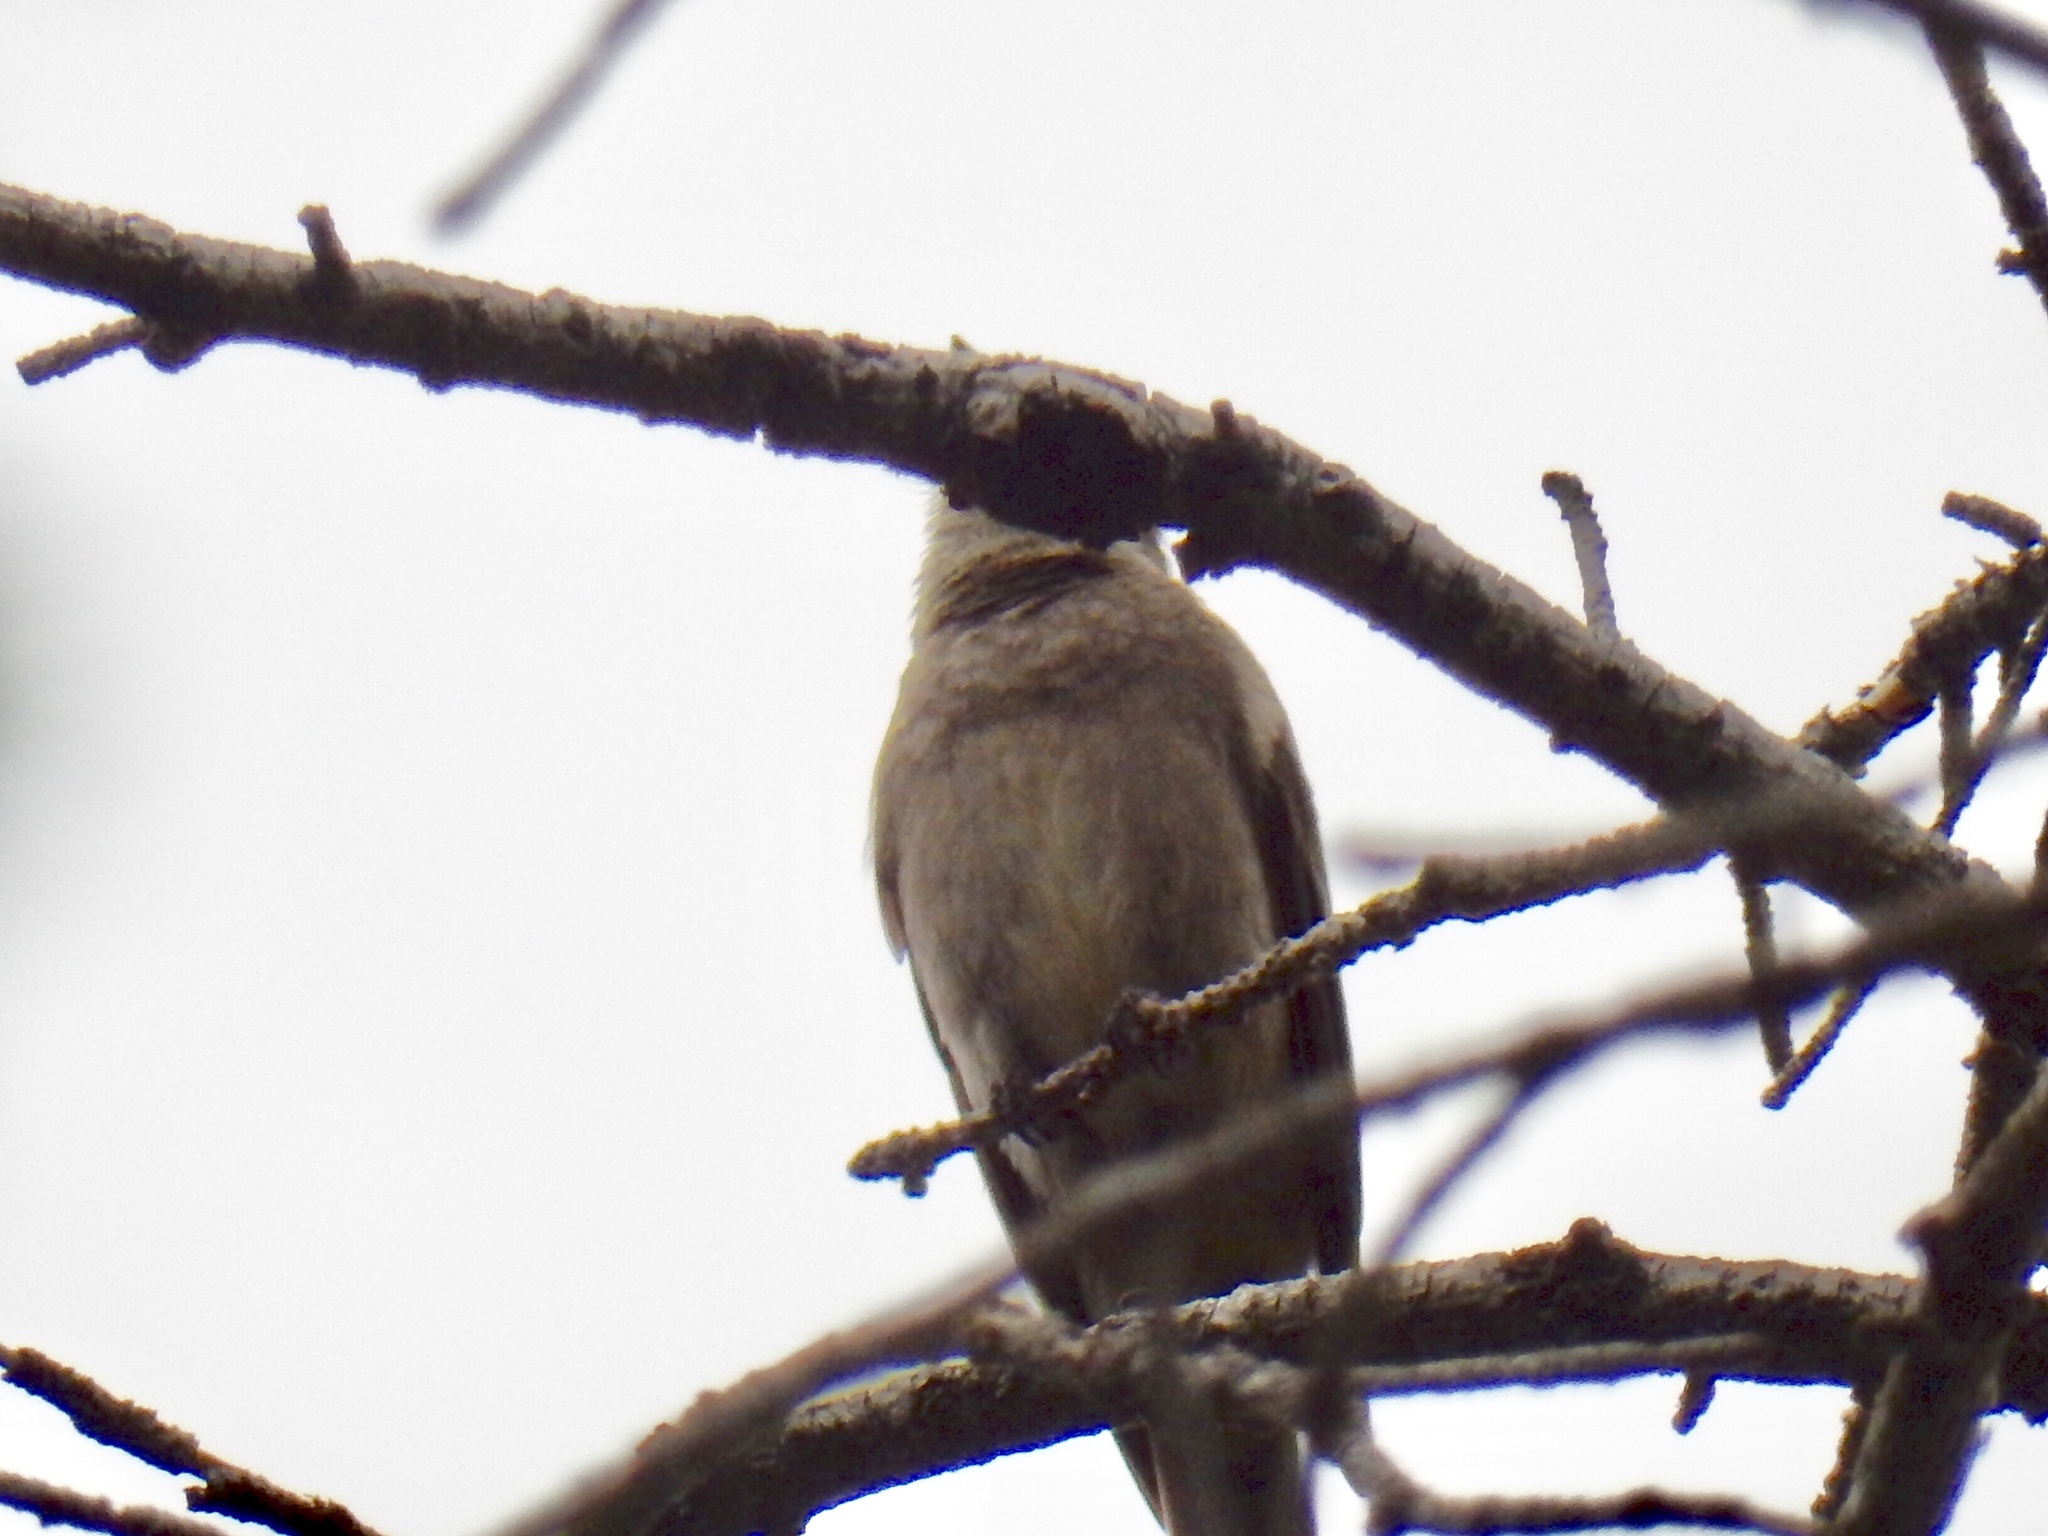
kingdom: Animalia
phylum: Chordata
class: Aves
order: Passeriformes
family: Tyrannidae
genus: Contopus
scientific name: Contopus sordidulus
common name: Western wood-pewee
